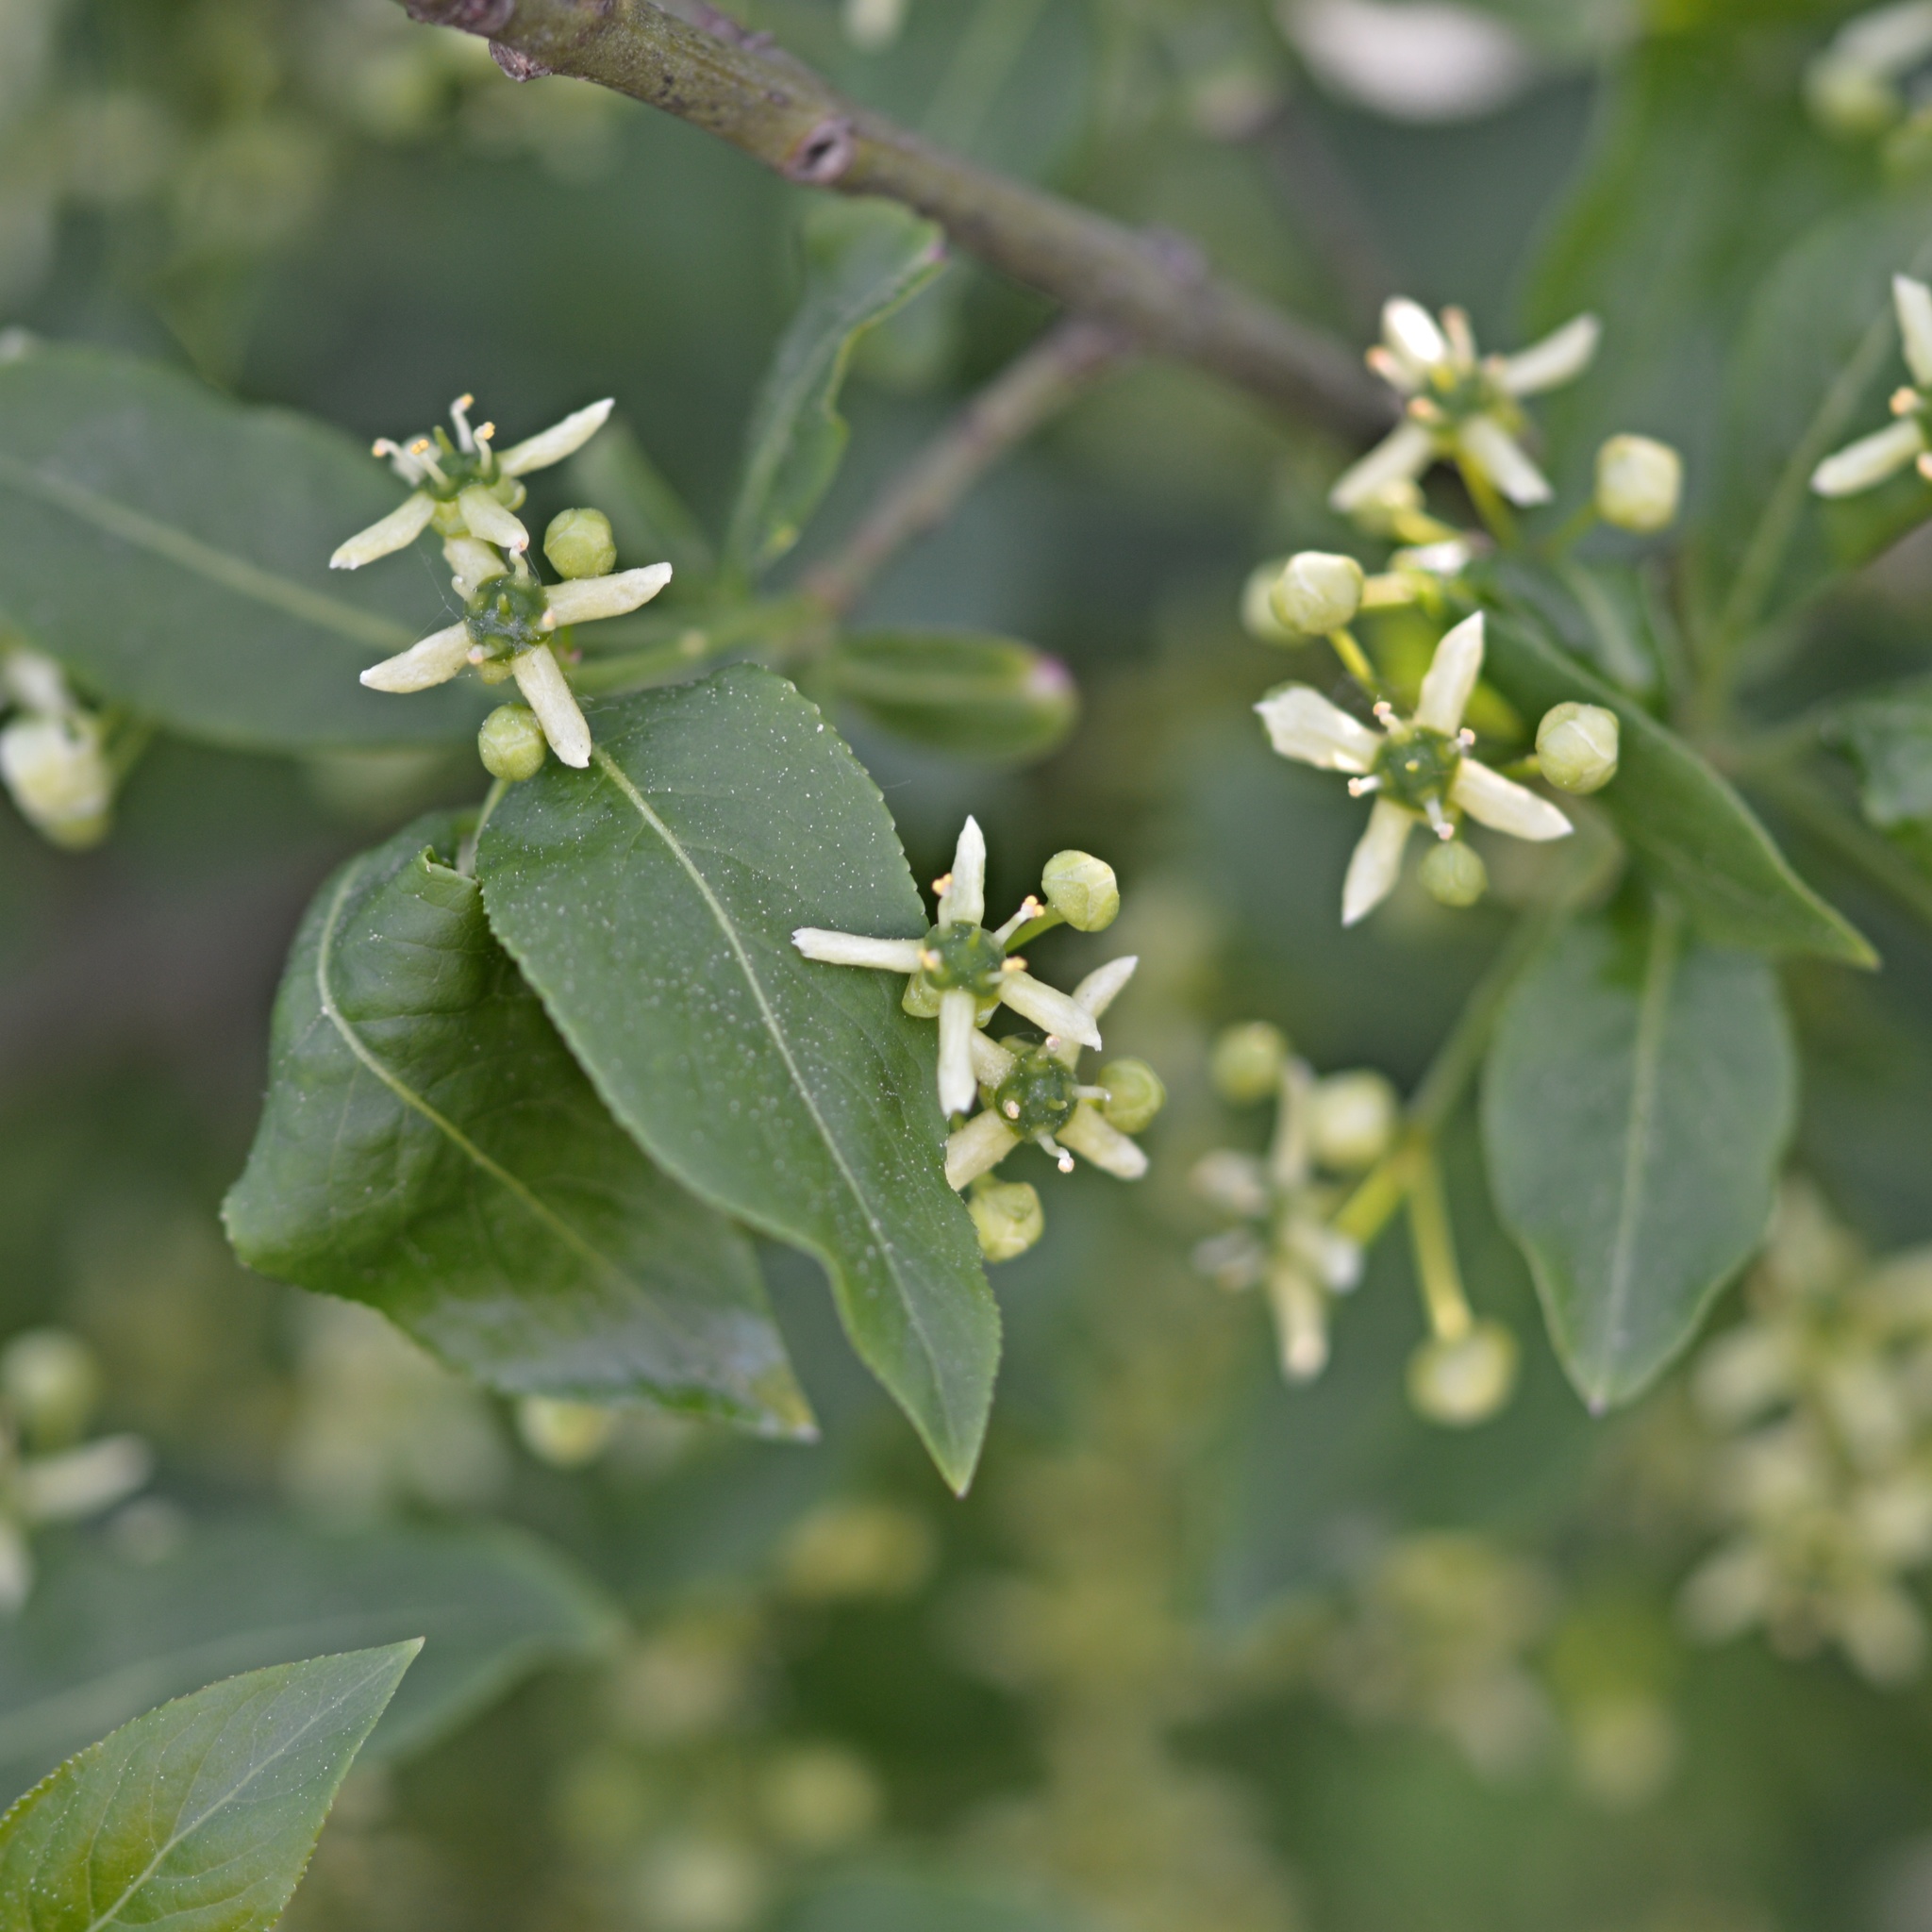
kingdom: Plantae
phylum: Tracheophyta
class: Magnoliopsida
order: Celastrales
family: Celastraceae
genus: Euonymus
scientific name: Euonymus europaeus
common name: Spindle
